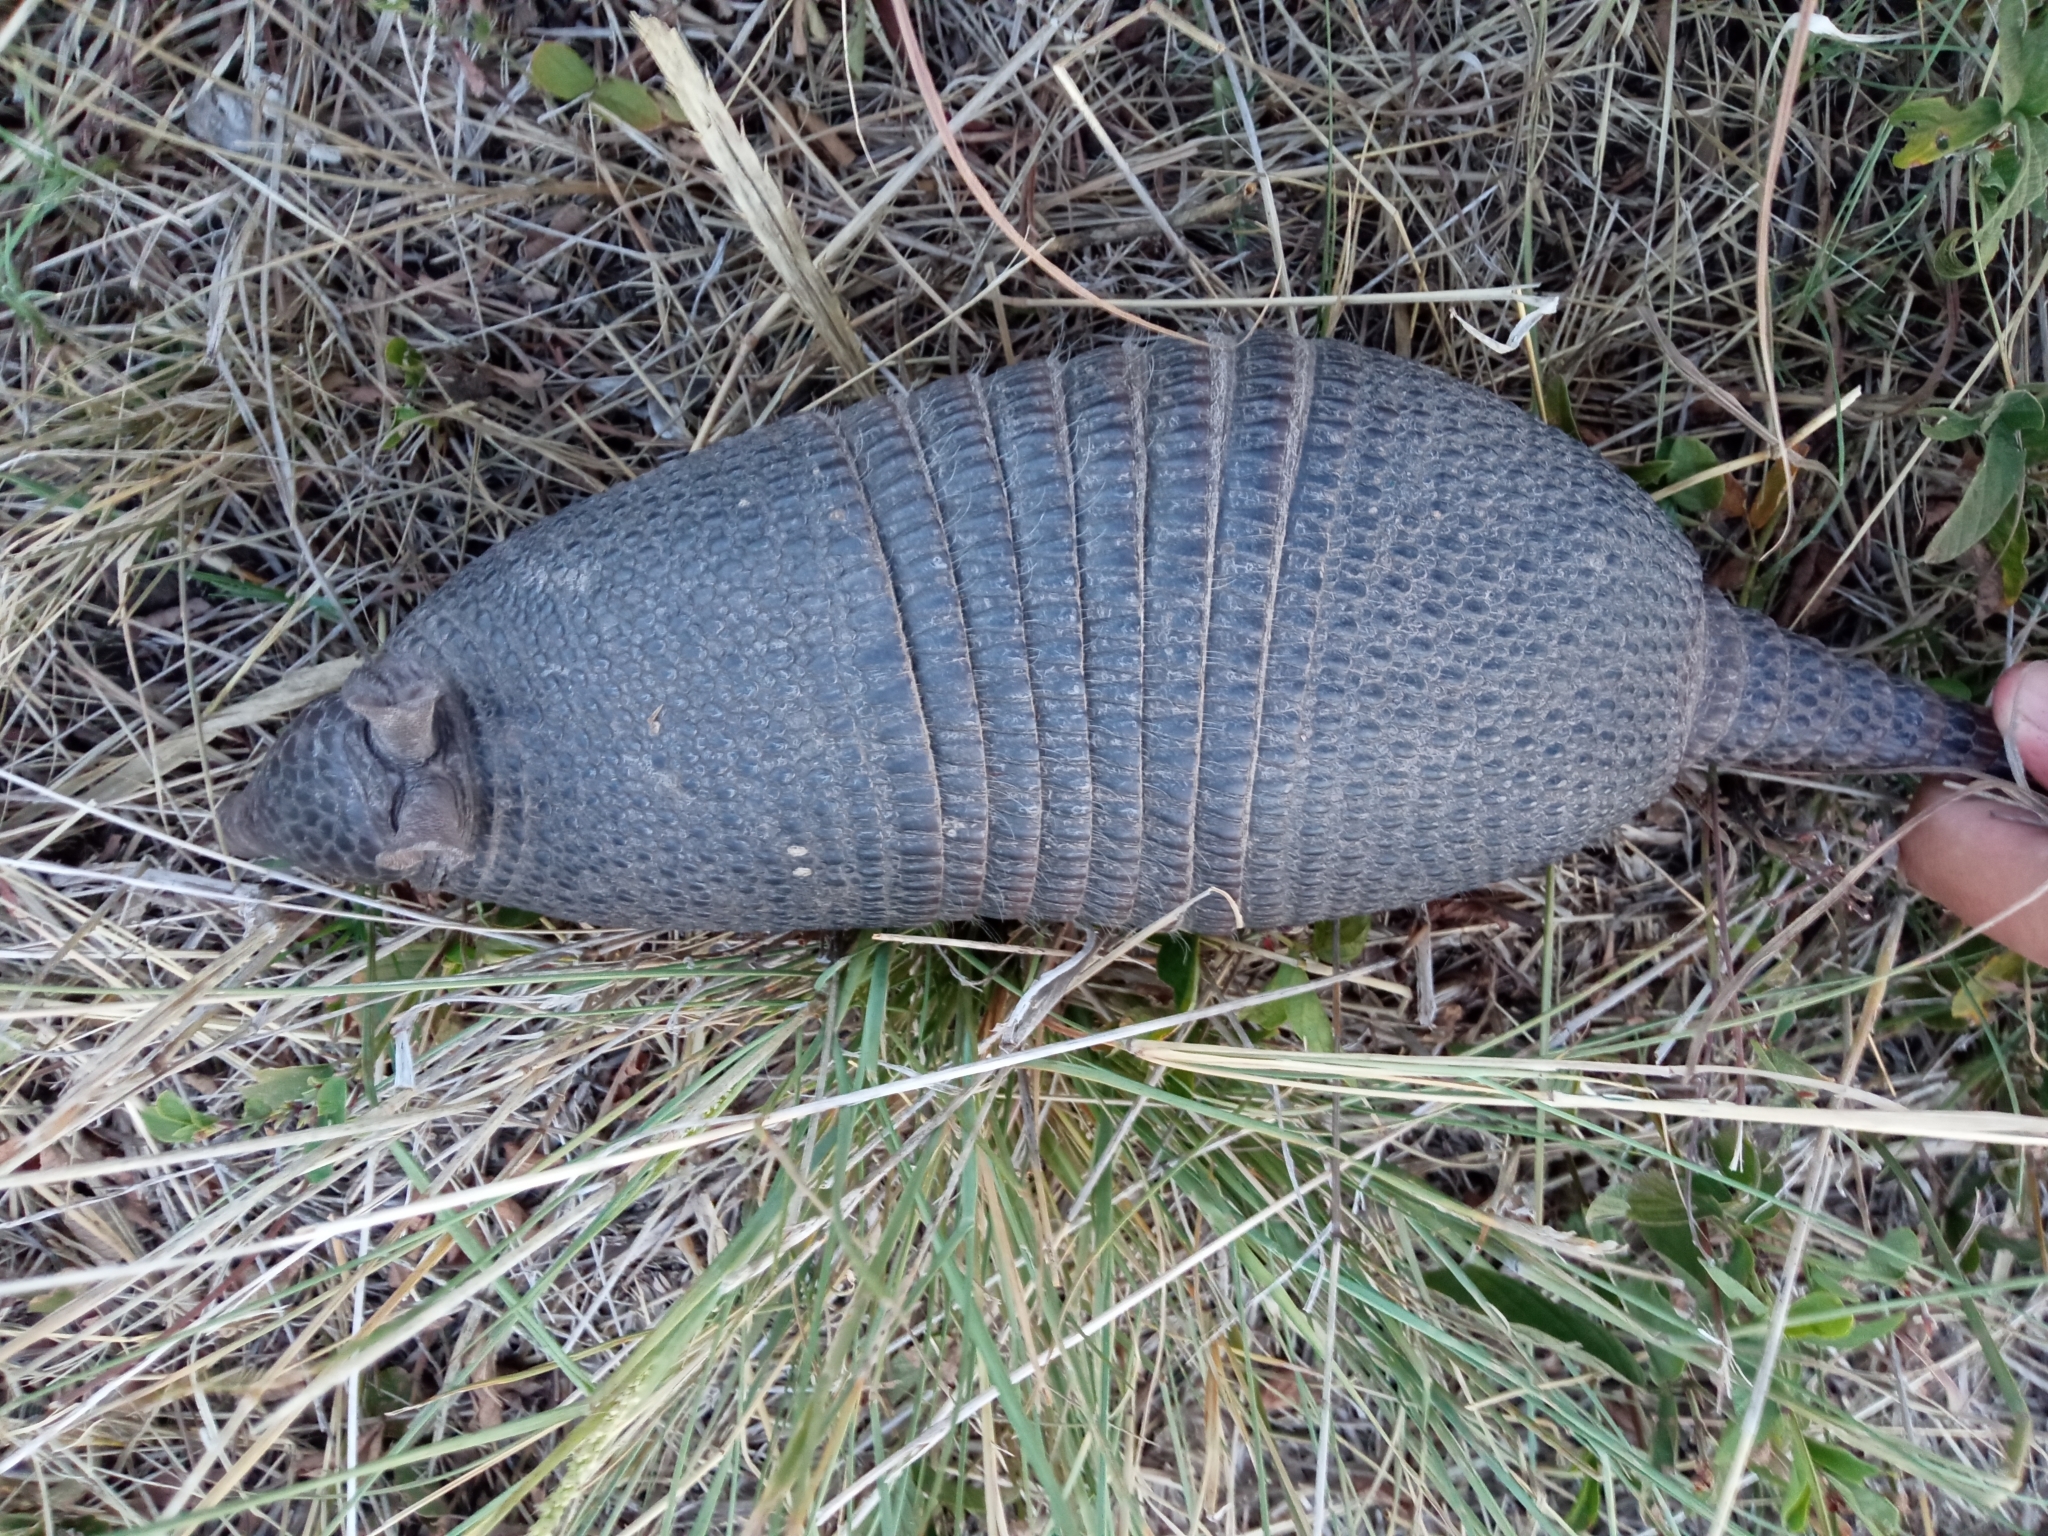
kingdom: Animalia
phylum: Chordata
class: Mammalia
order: Cingulata
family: Dasypodidae
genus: Dasypus
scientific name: Dasypus septemcinctus
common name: Seven-banded armadillo
